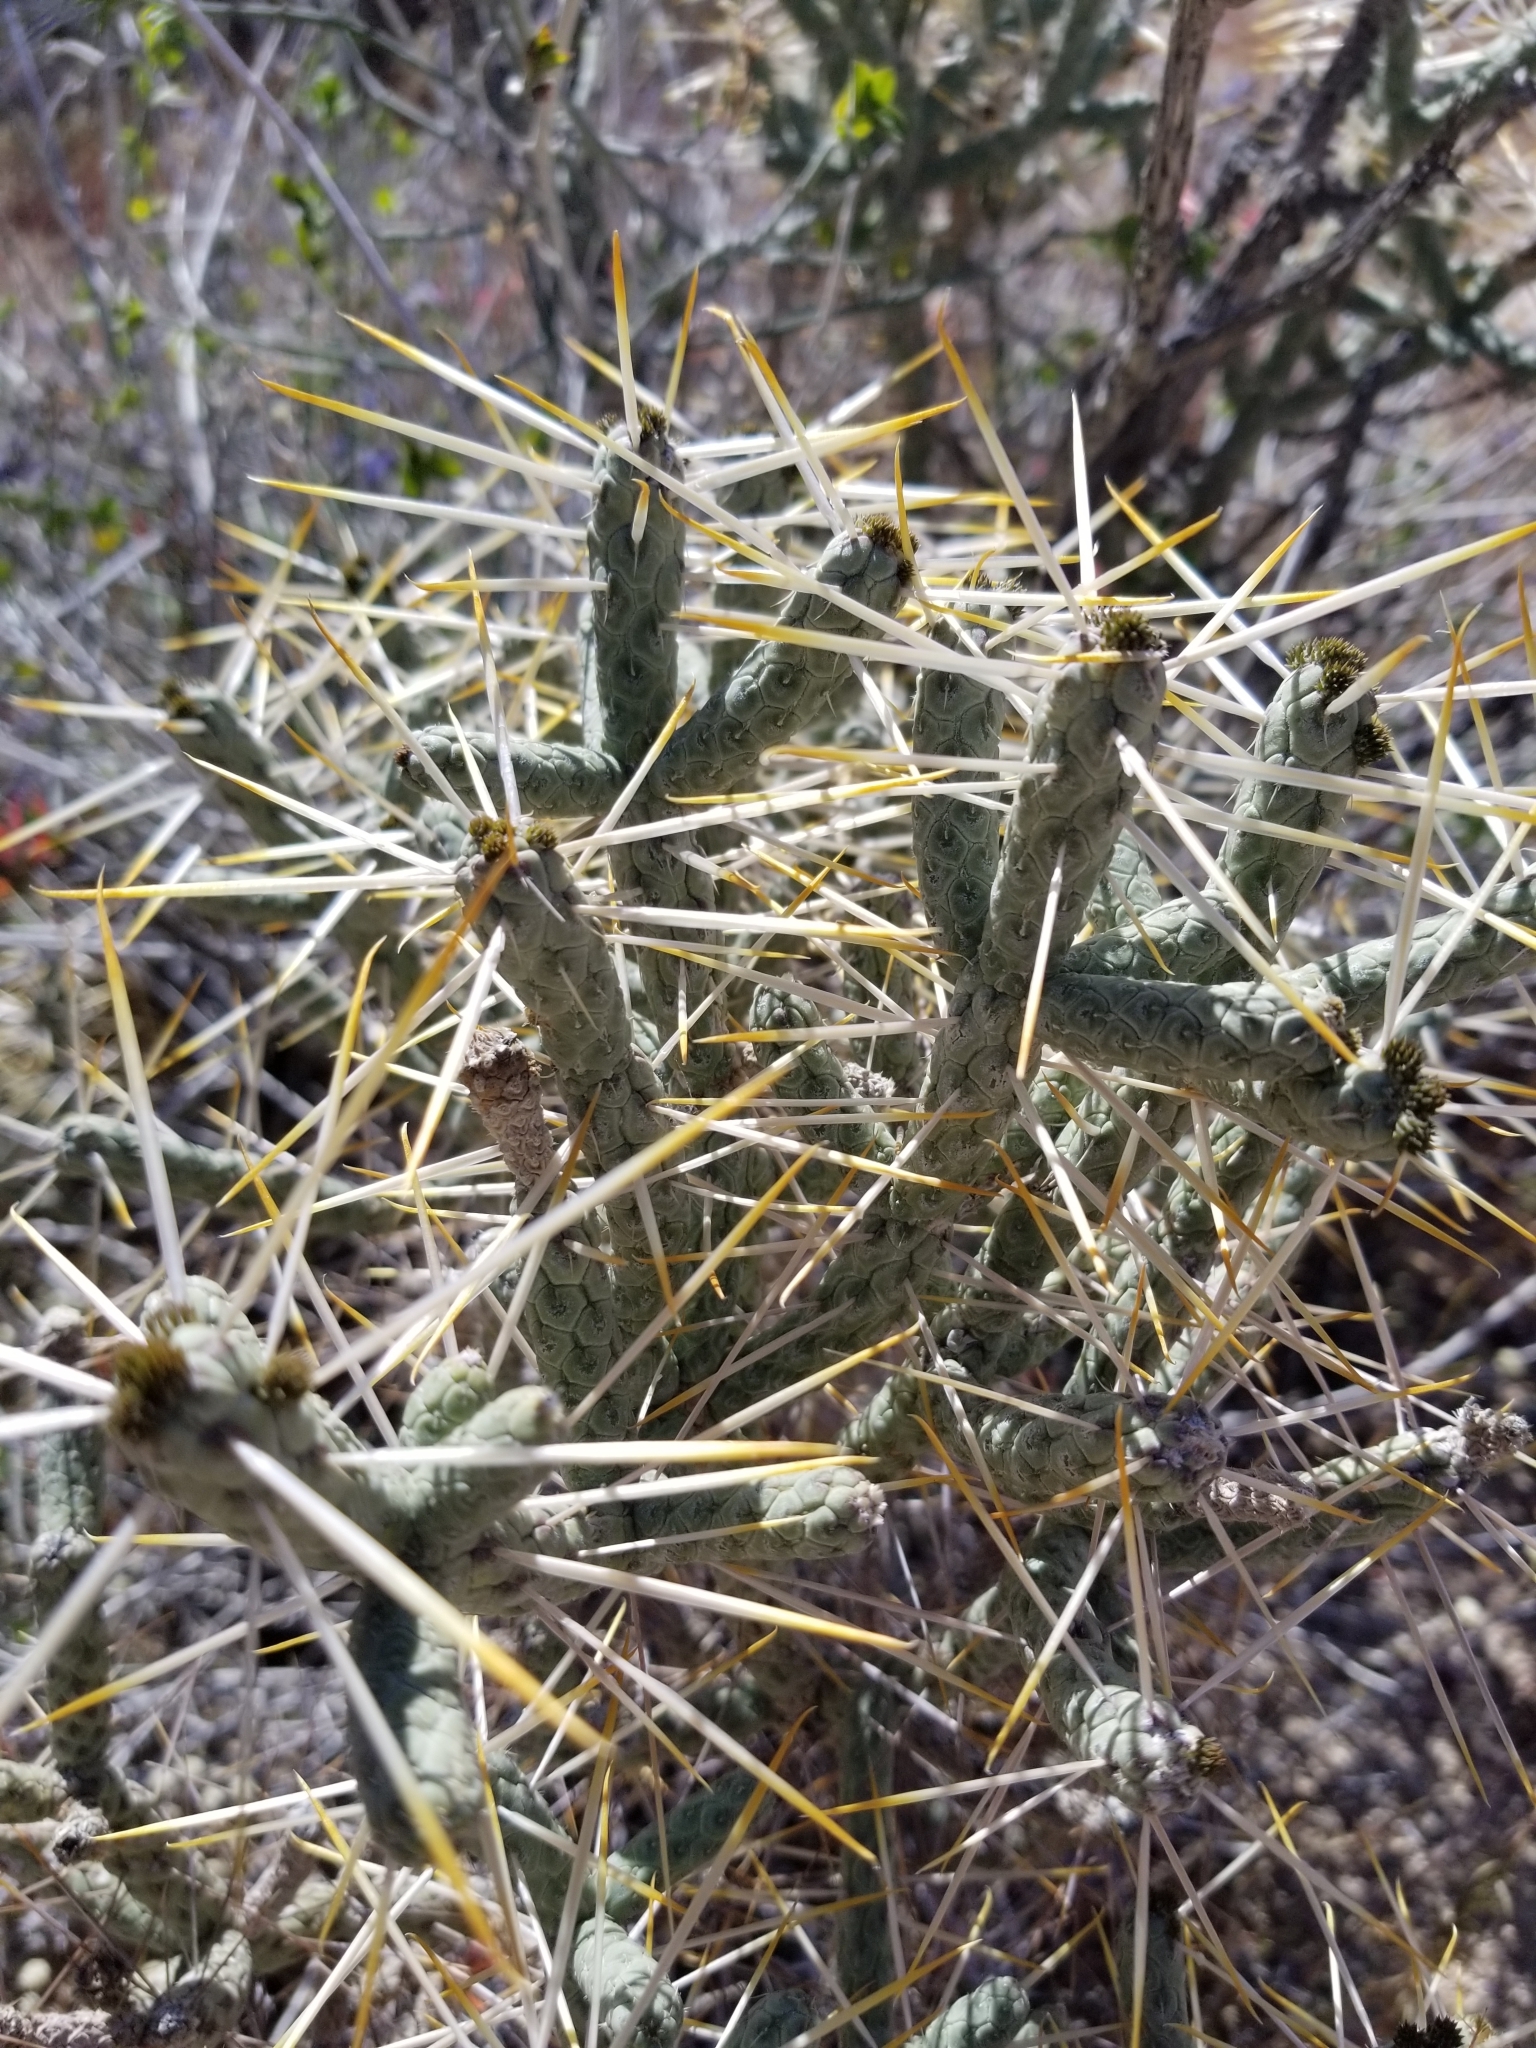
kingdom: Plantae
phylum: Tracheophyta
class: Magnoliopsida
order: Caryophyllales
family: Cactaceae
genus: Cylindropuntia
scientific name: Cylindropuntia ramosissima
